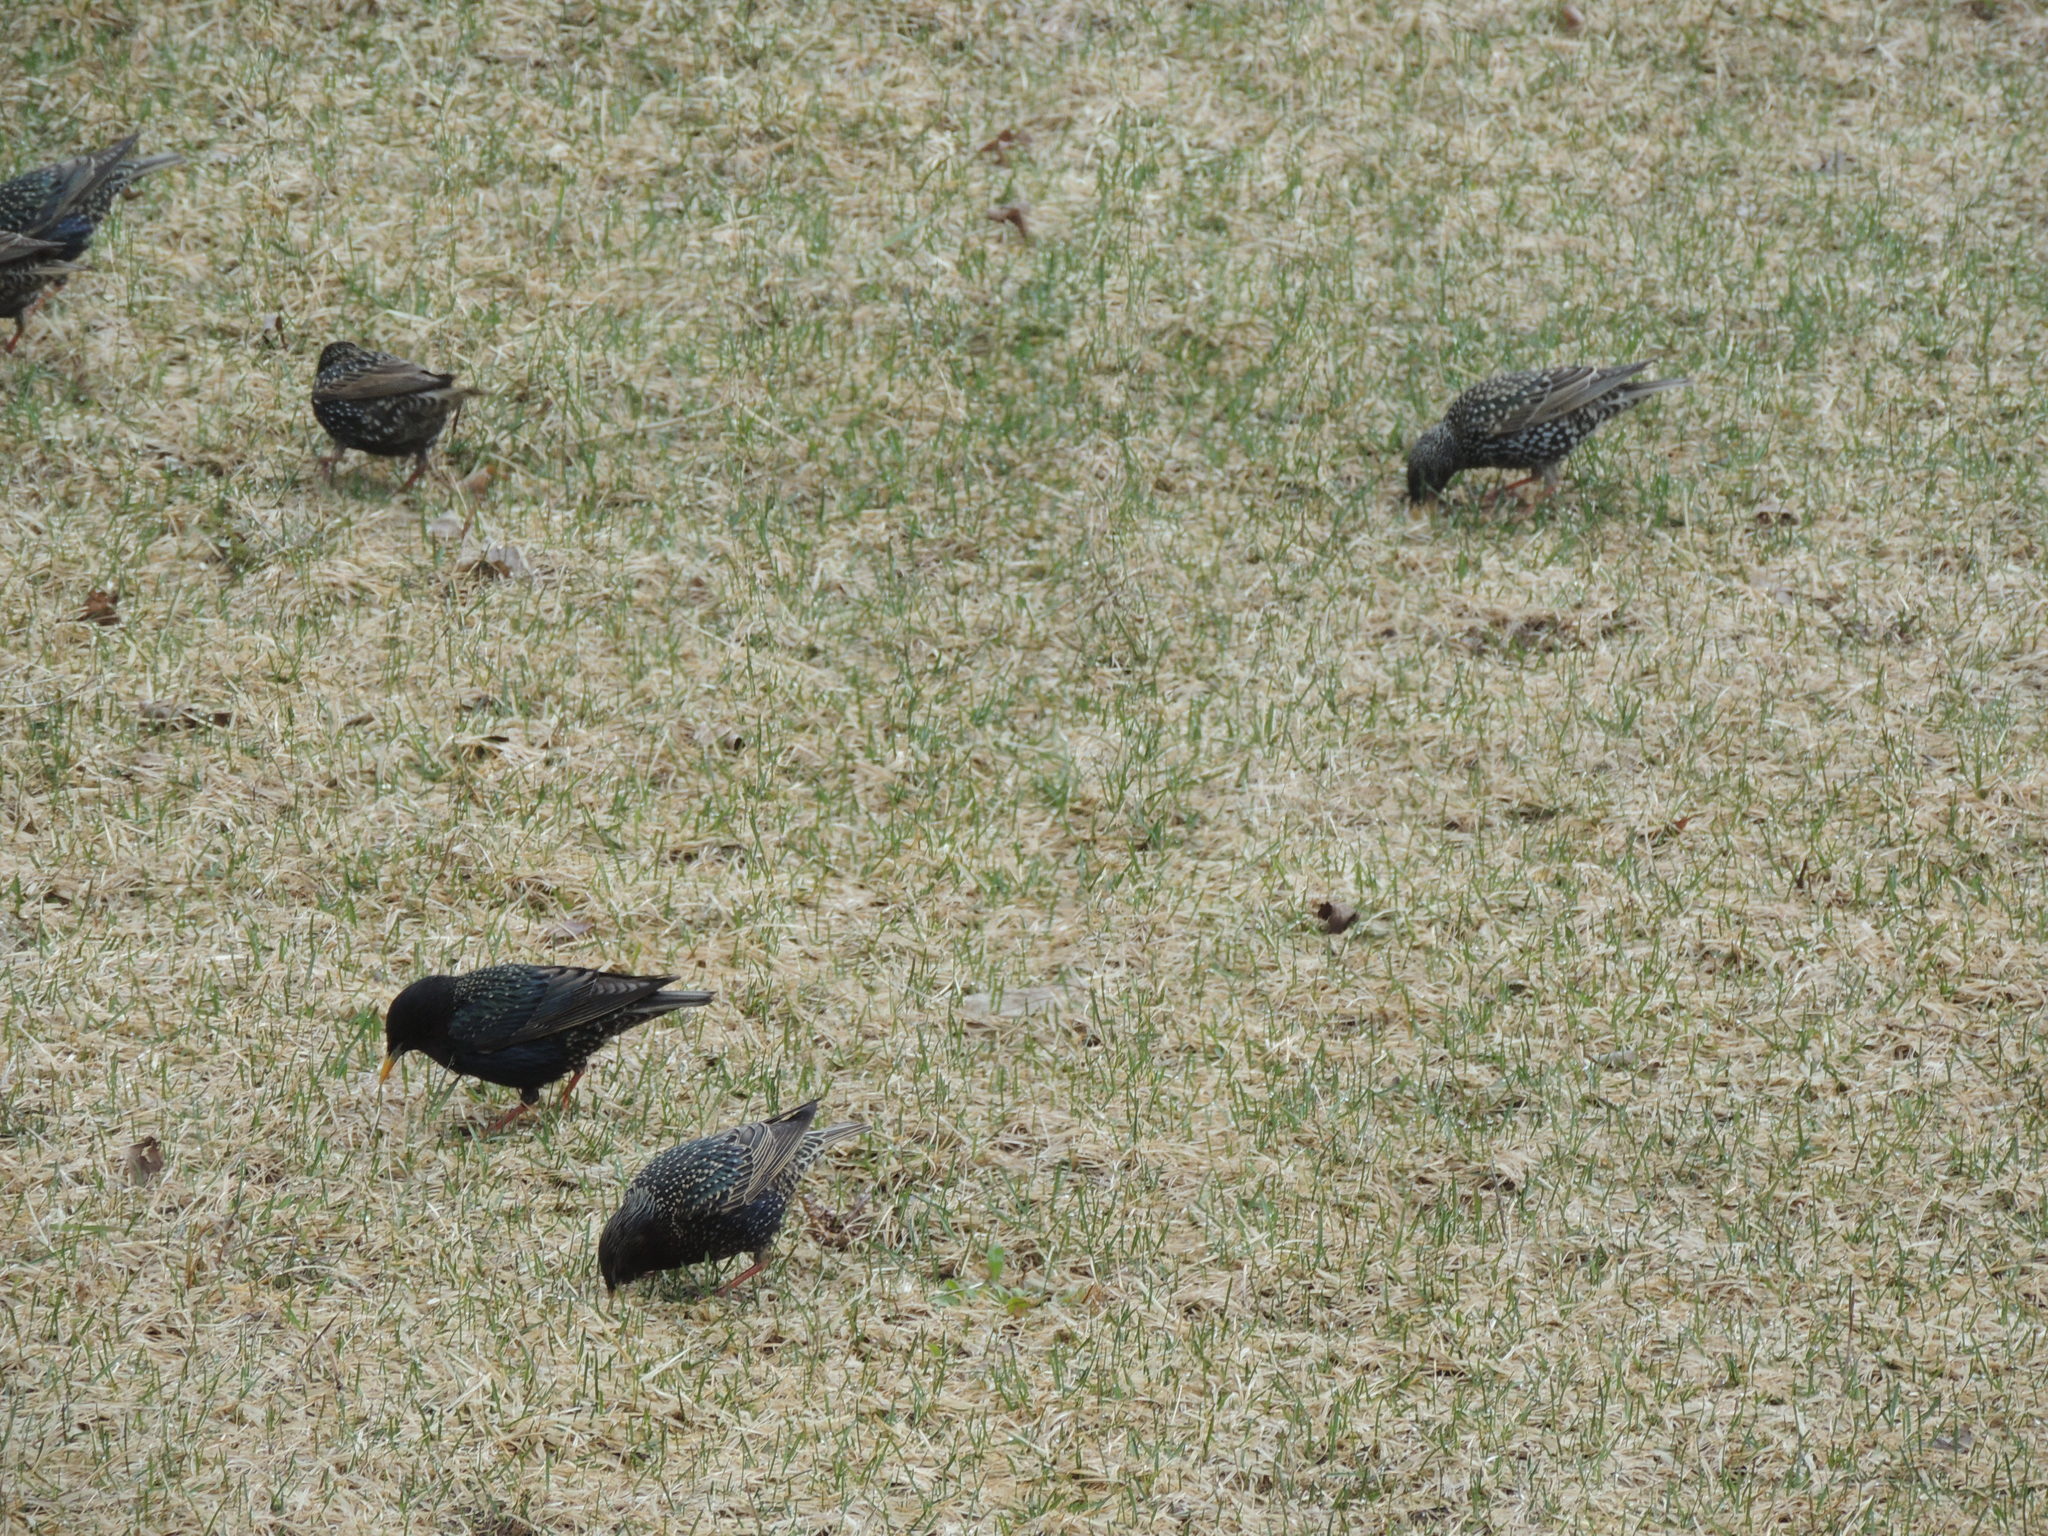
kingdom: Animalia
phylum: Chordata
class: Aves
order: Passeriformes
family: Sturnidae
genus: Sturnus
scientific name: Sturnus vulgaris
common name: Common starling
